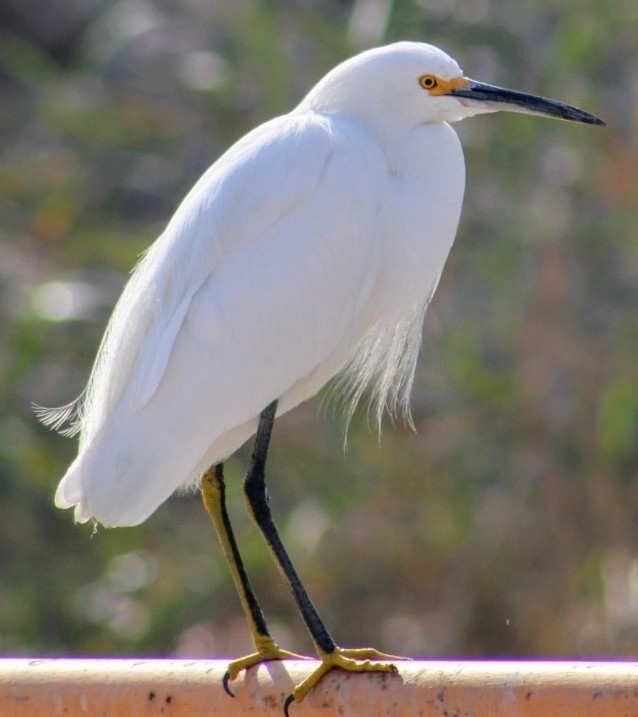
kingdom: Animalia
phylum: Chordata
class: Aves
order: Pelecaniformes
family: Ardeidae
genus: Egretta
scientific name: Egretta thula
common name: Snowy egret
